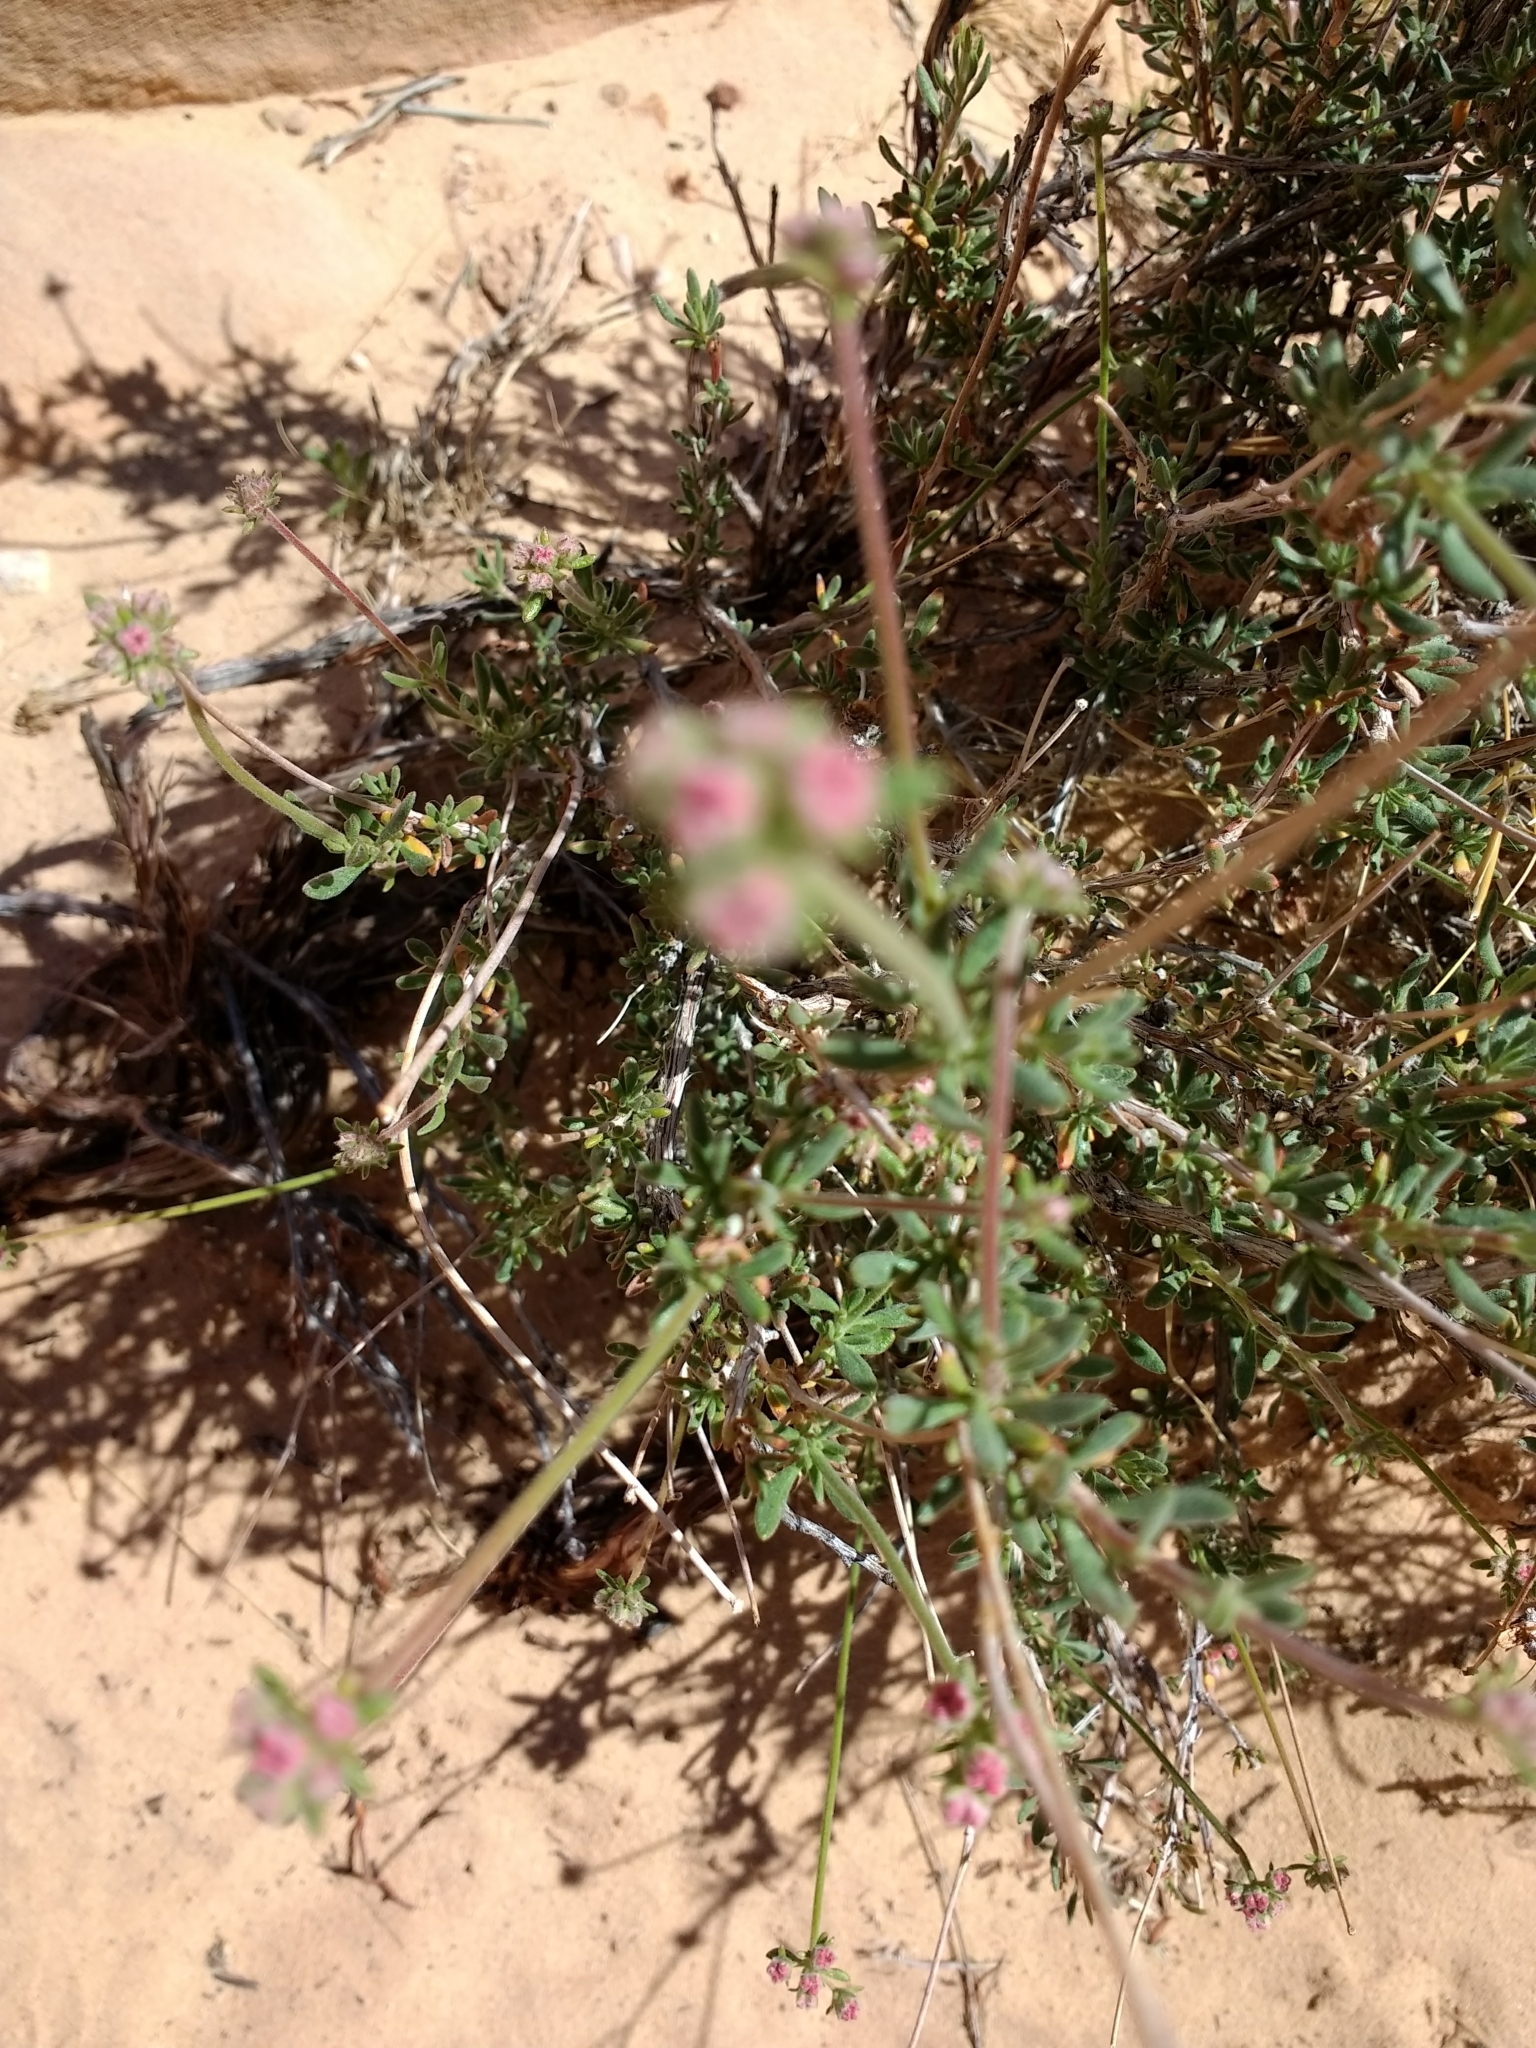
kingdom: Plantae
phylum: Tracheophyta
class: Magnoliopsida
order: Caryophyllales
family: Polygonaceae
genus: Eriogonum
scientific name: Eriogonum fasciculatum
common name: California wild buckwheat
